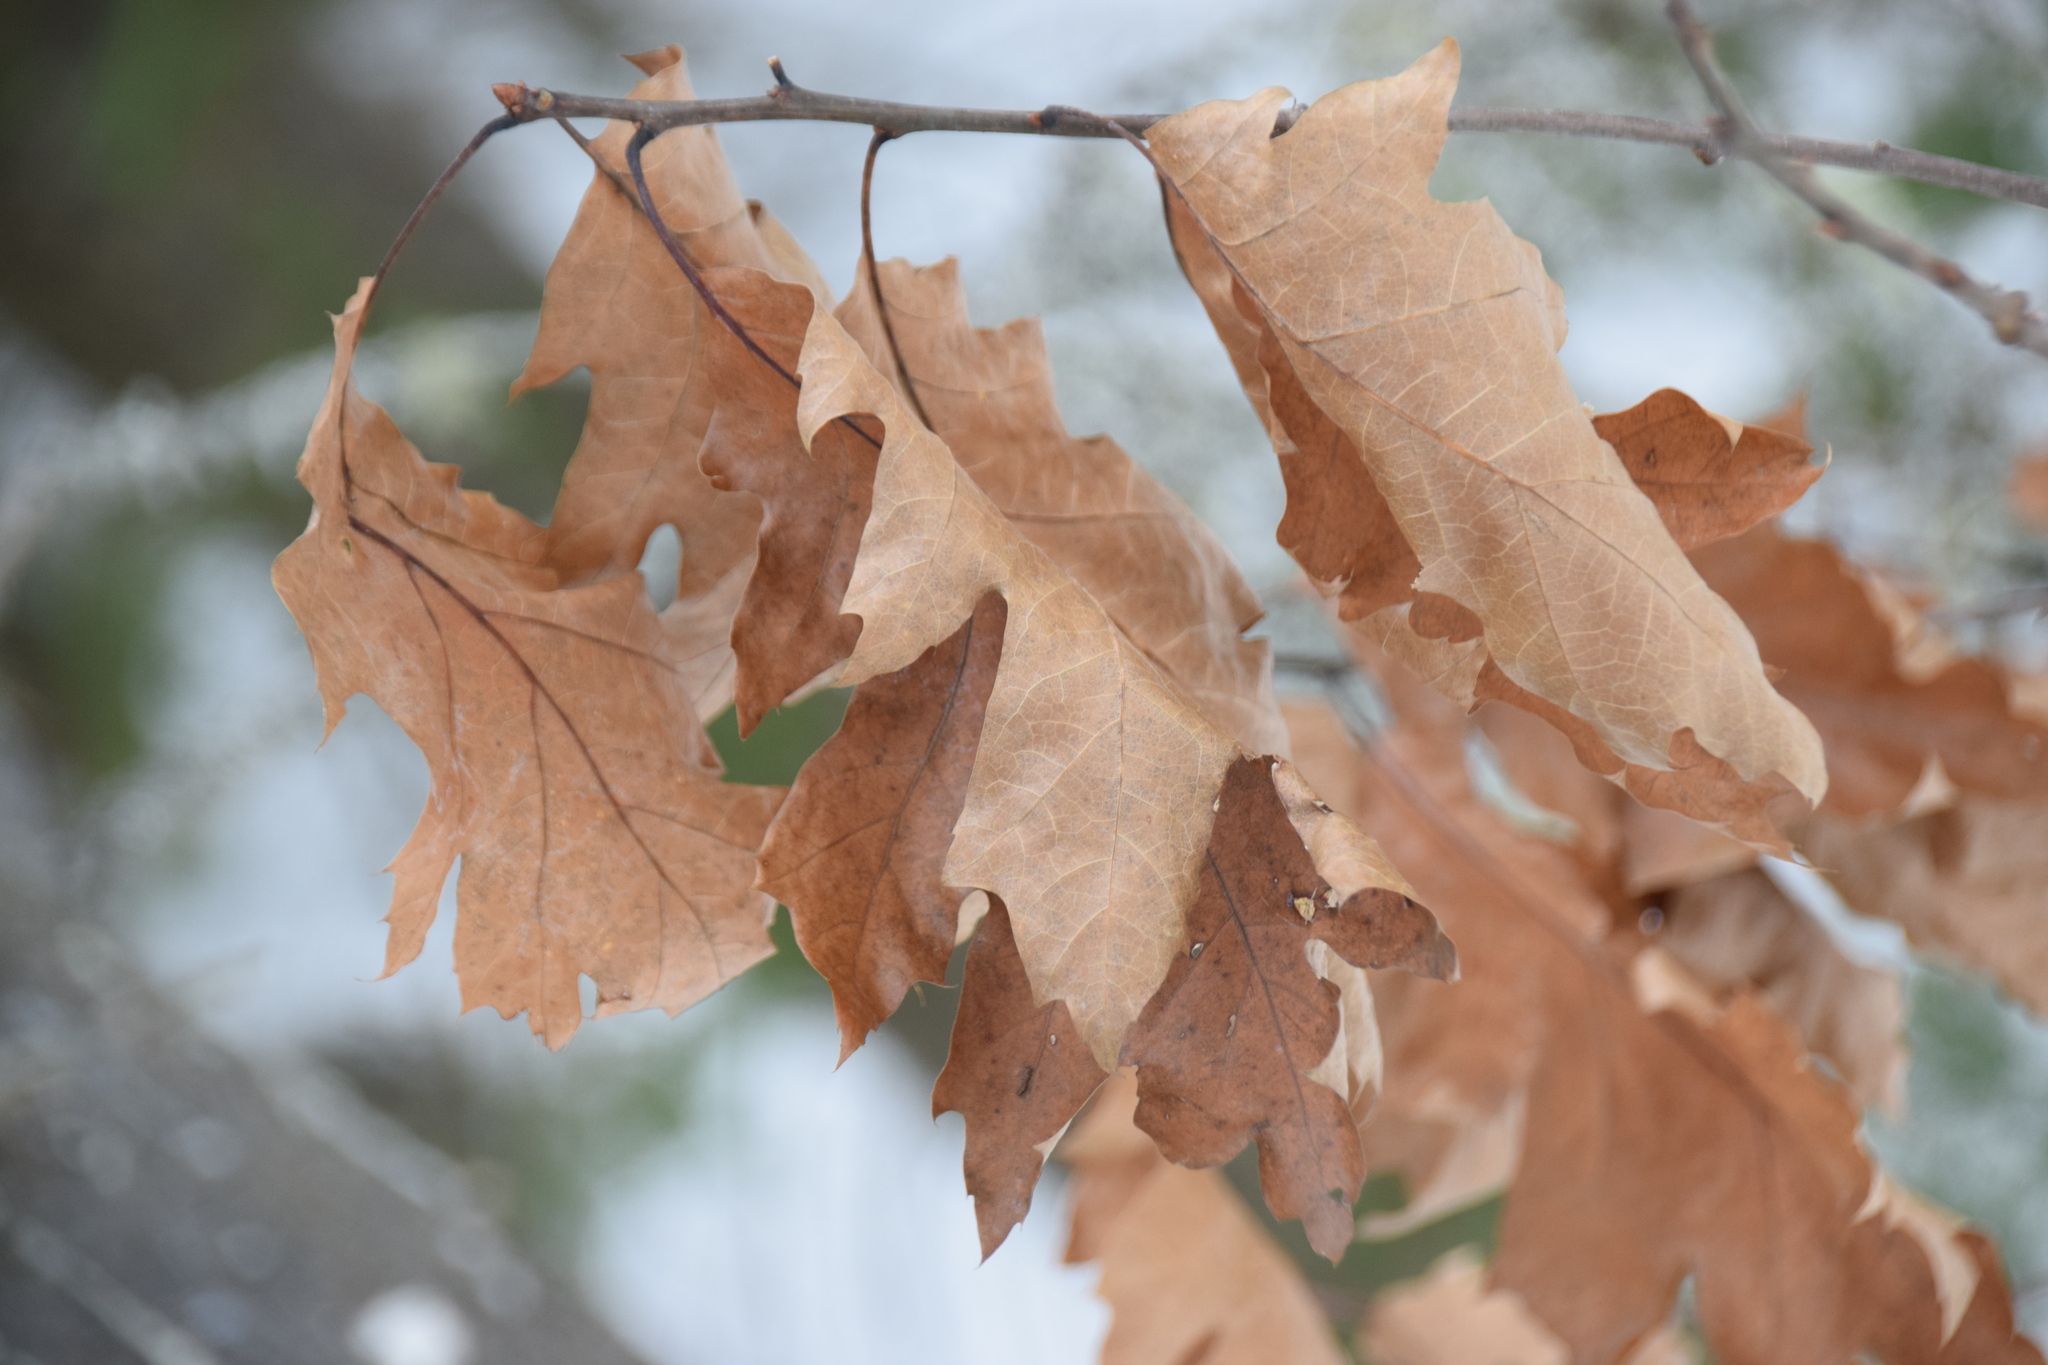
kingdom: Plantae
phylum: Tracheophyta
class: Magnoliopsida
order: Fagales
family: Fagaceae
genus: Quercus
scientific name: Quercus rubra
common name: Red oak
